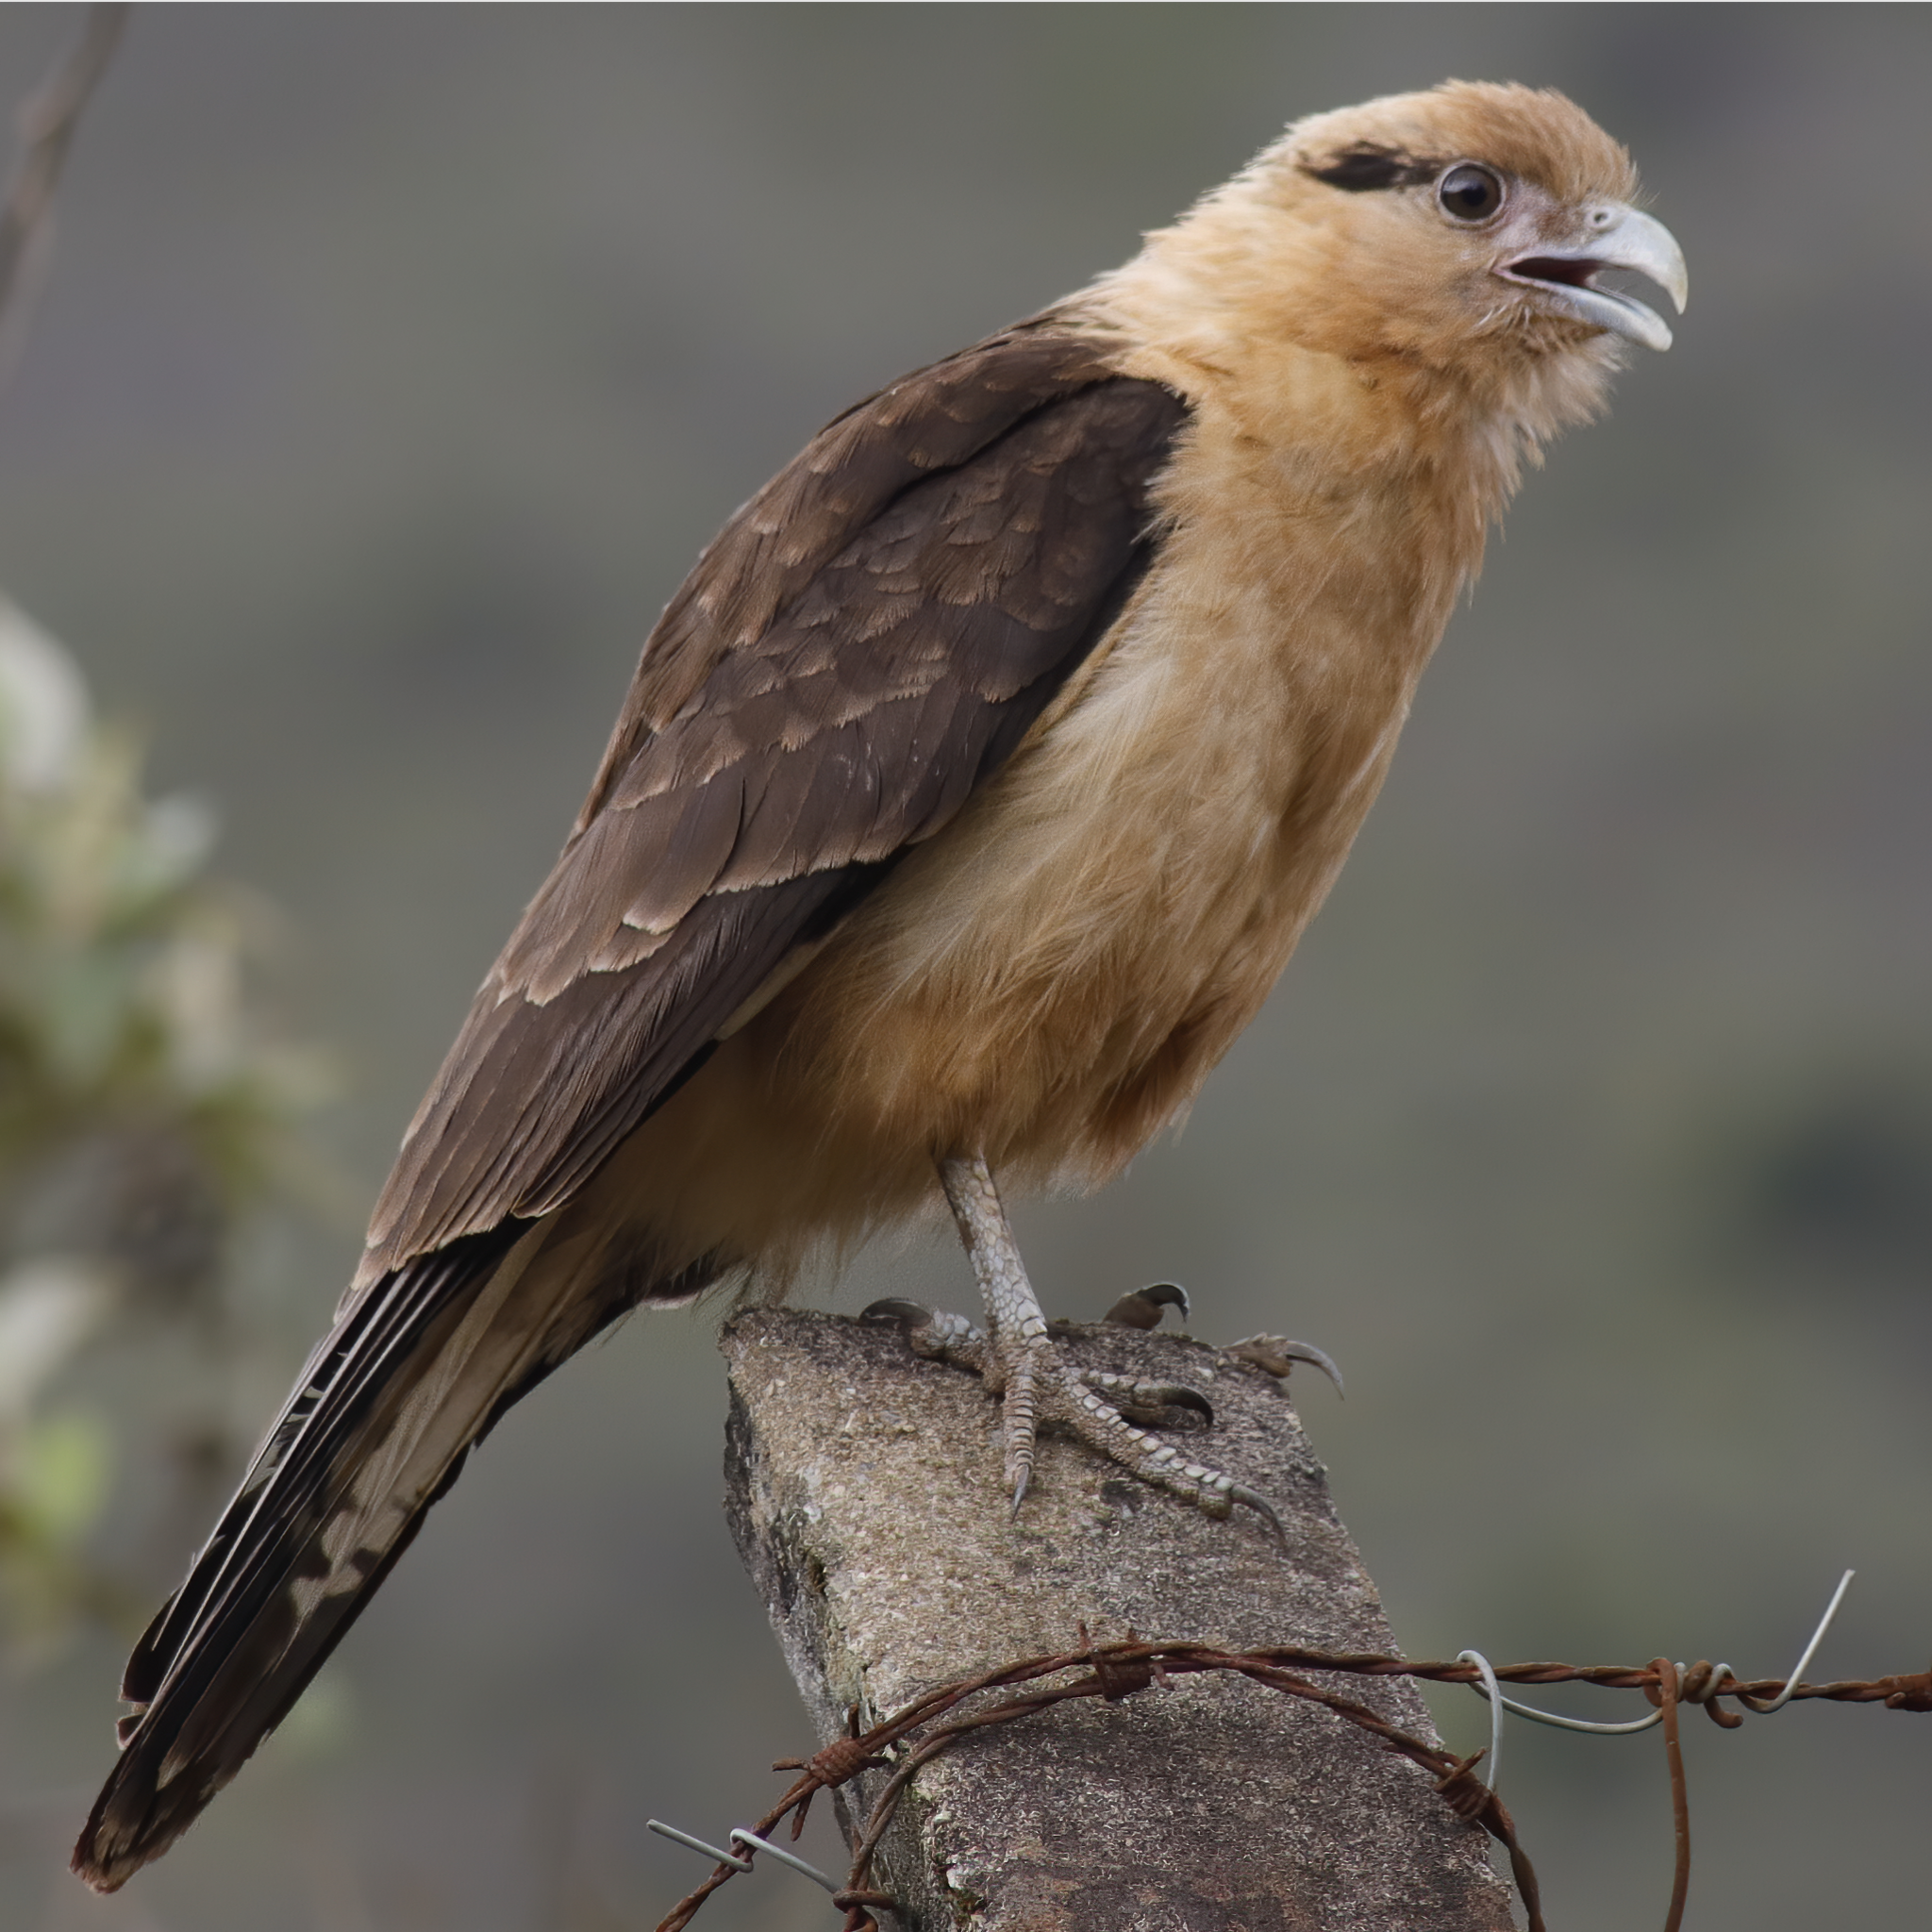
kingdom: Animalia
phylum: Chordata
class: Aves
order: Falconiformes
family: Falconidae
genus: Daptrius
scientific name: Daptrius
